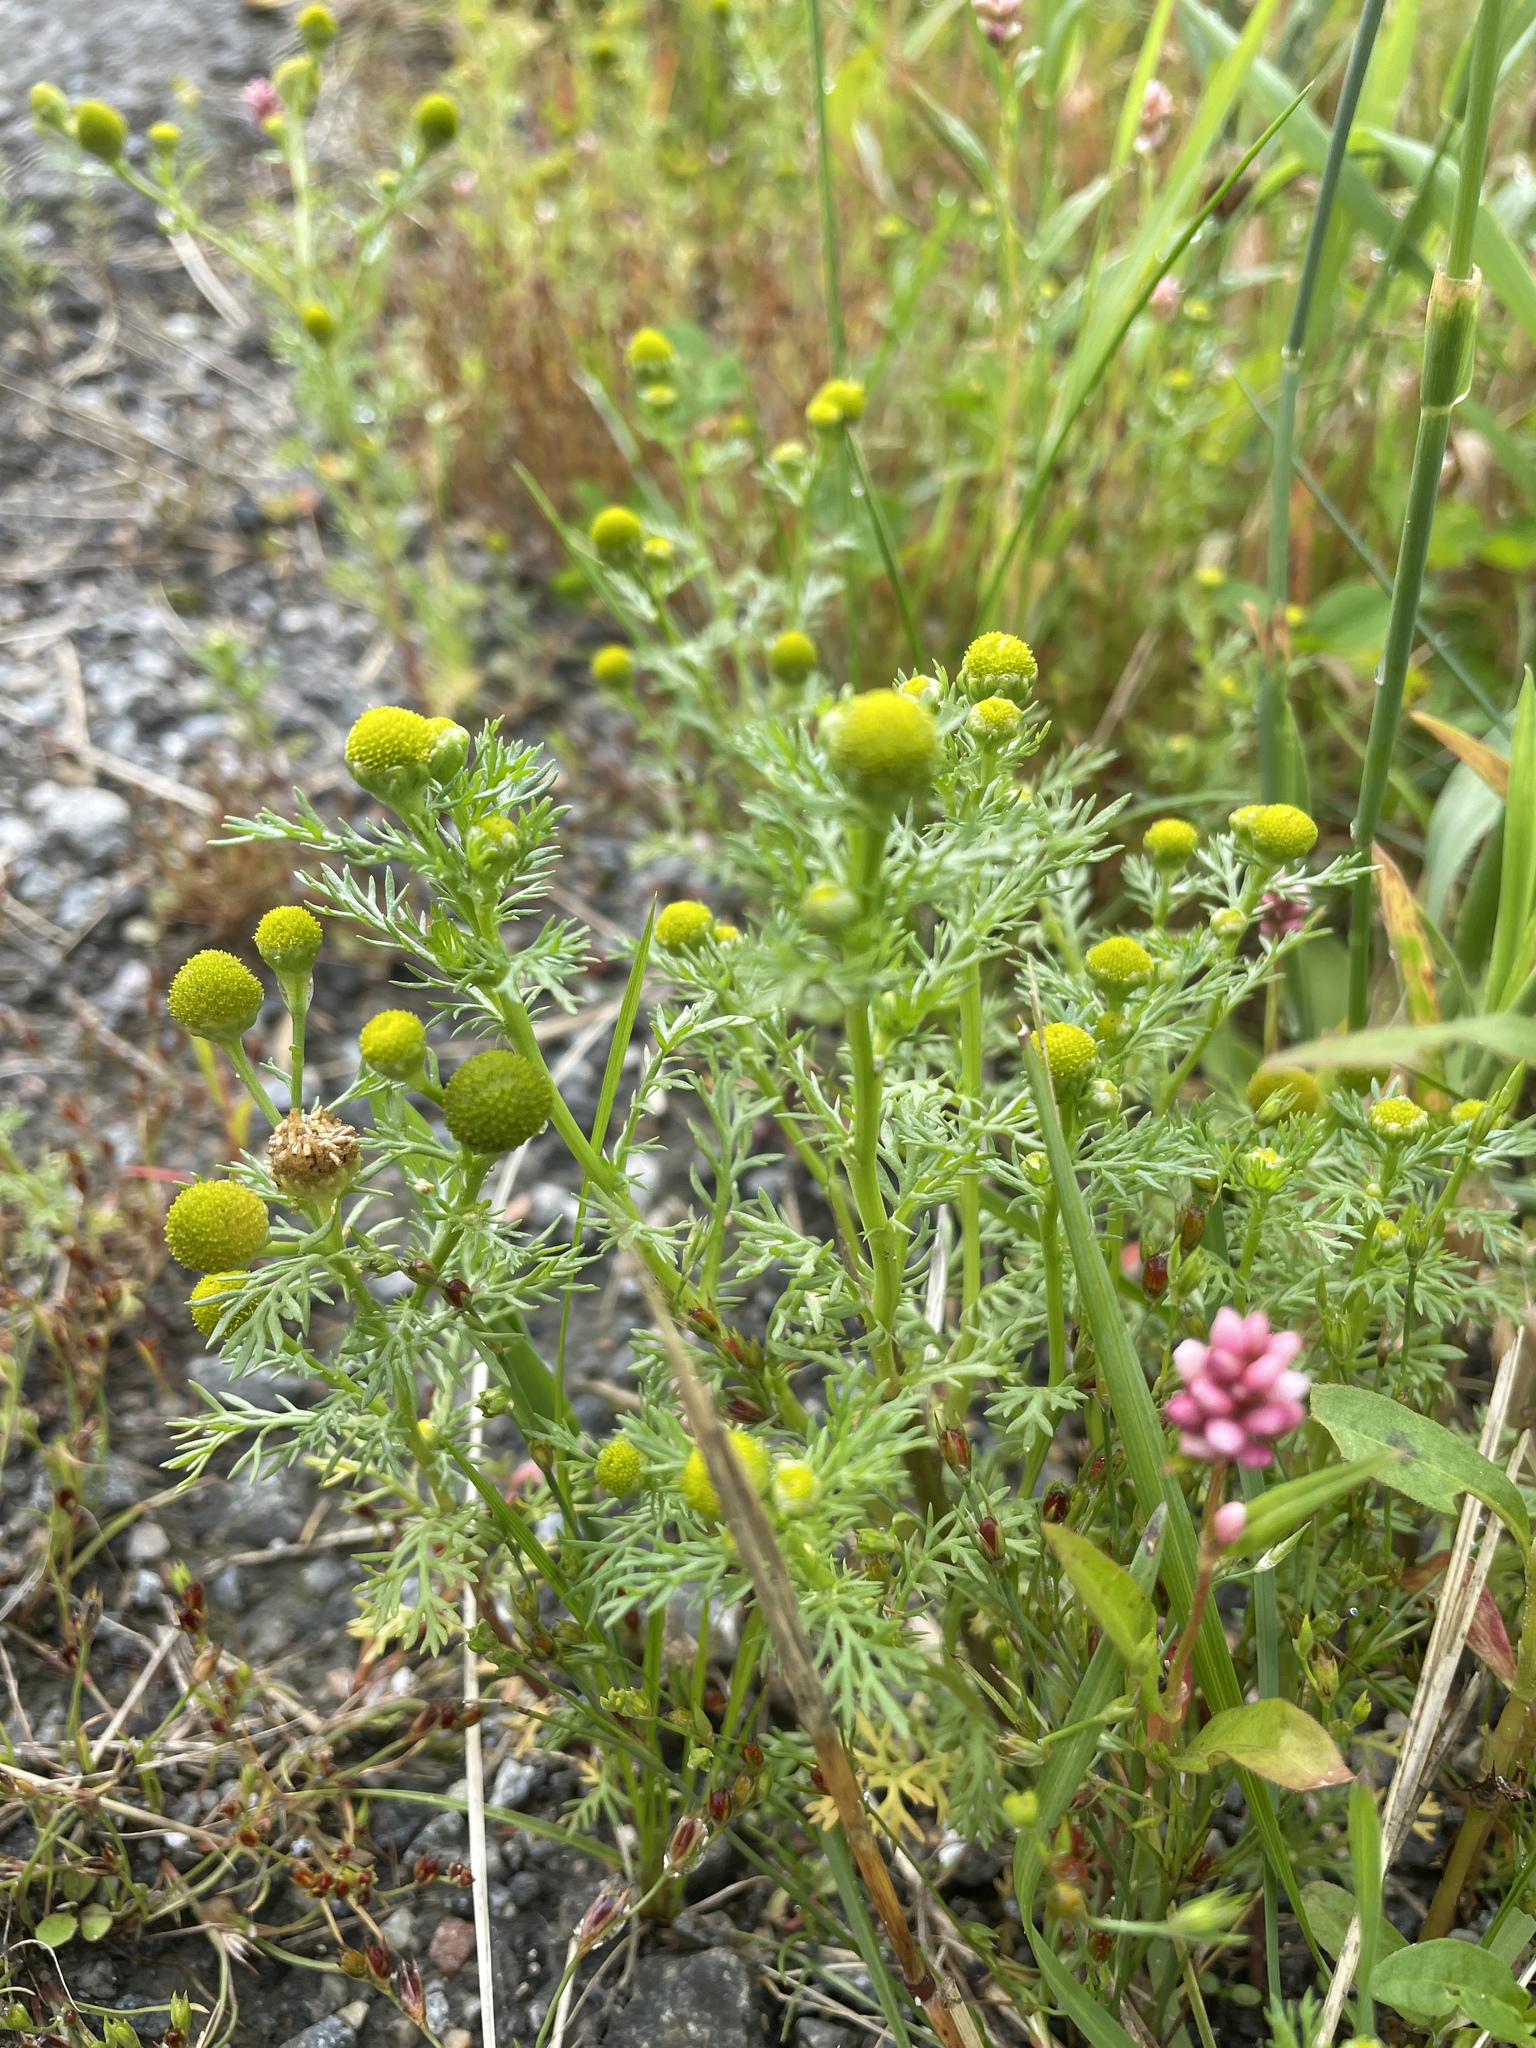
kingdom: Plantae
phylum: Tracheophyta
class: Magnoliopsida
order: Asterales
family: Asteraceae
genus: Matricaria
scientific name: Matricaria discoidea
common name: Disc mayweed
